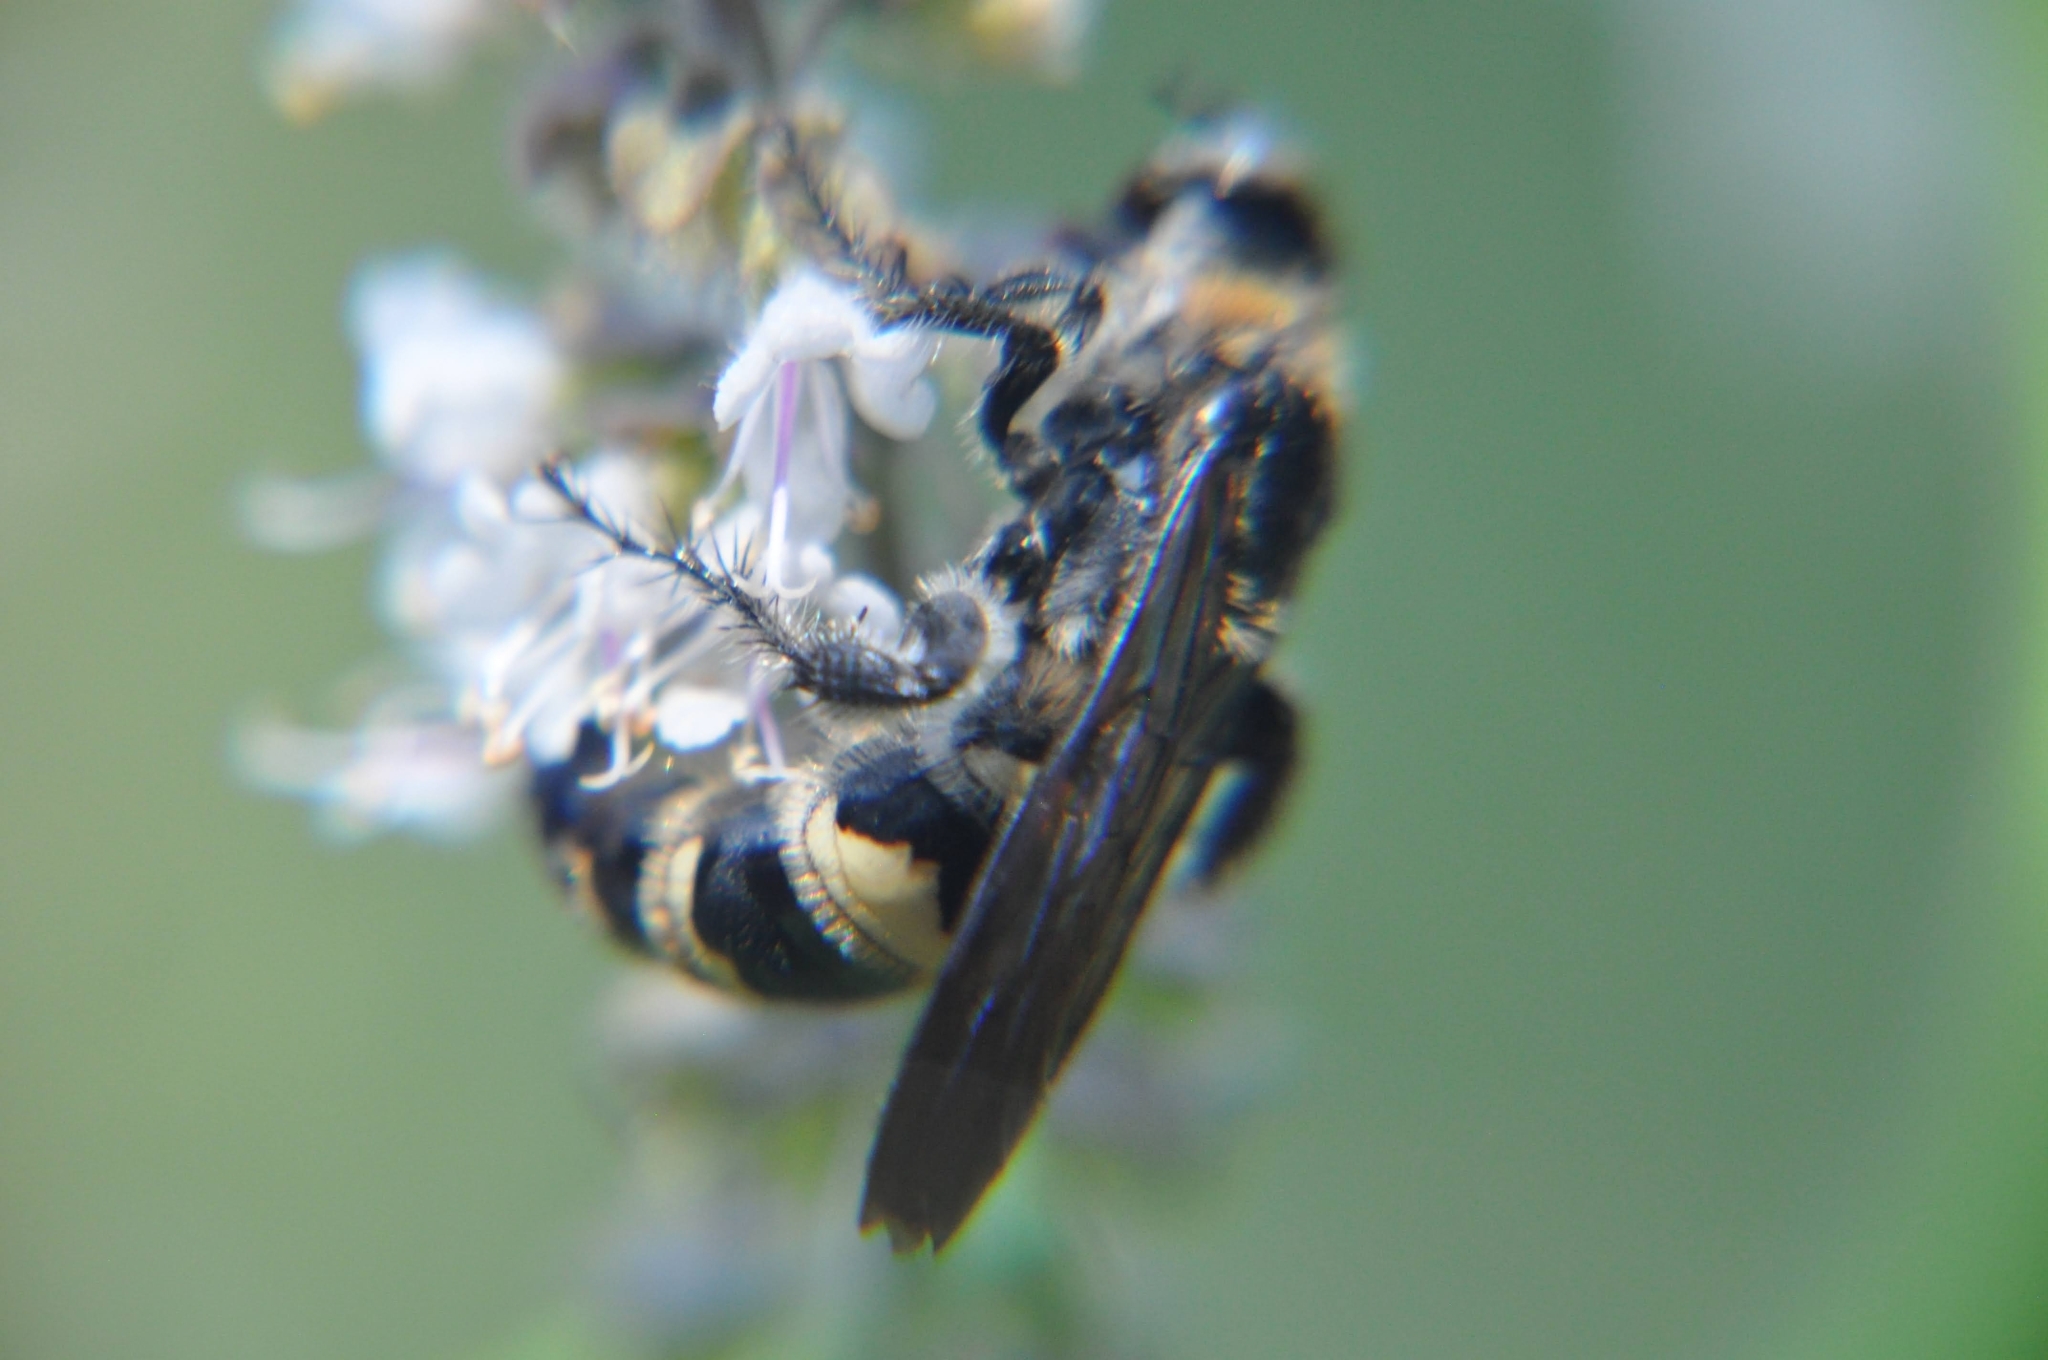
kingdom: Animalia
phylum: Arthropoda
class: Insecta
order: Hymenoptera
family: Scoliidae
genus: Dielis
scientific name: Dielis
